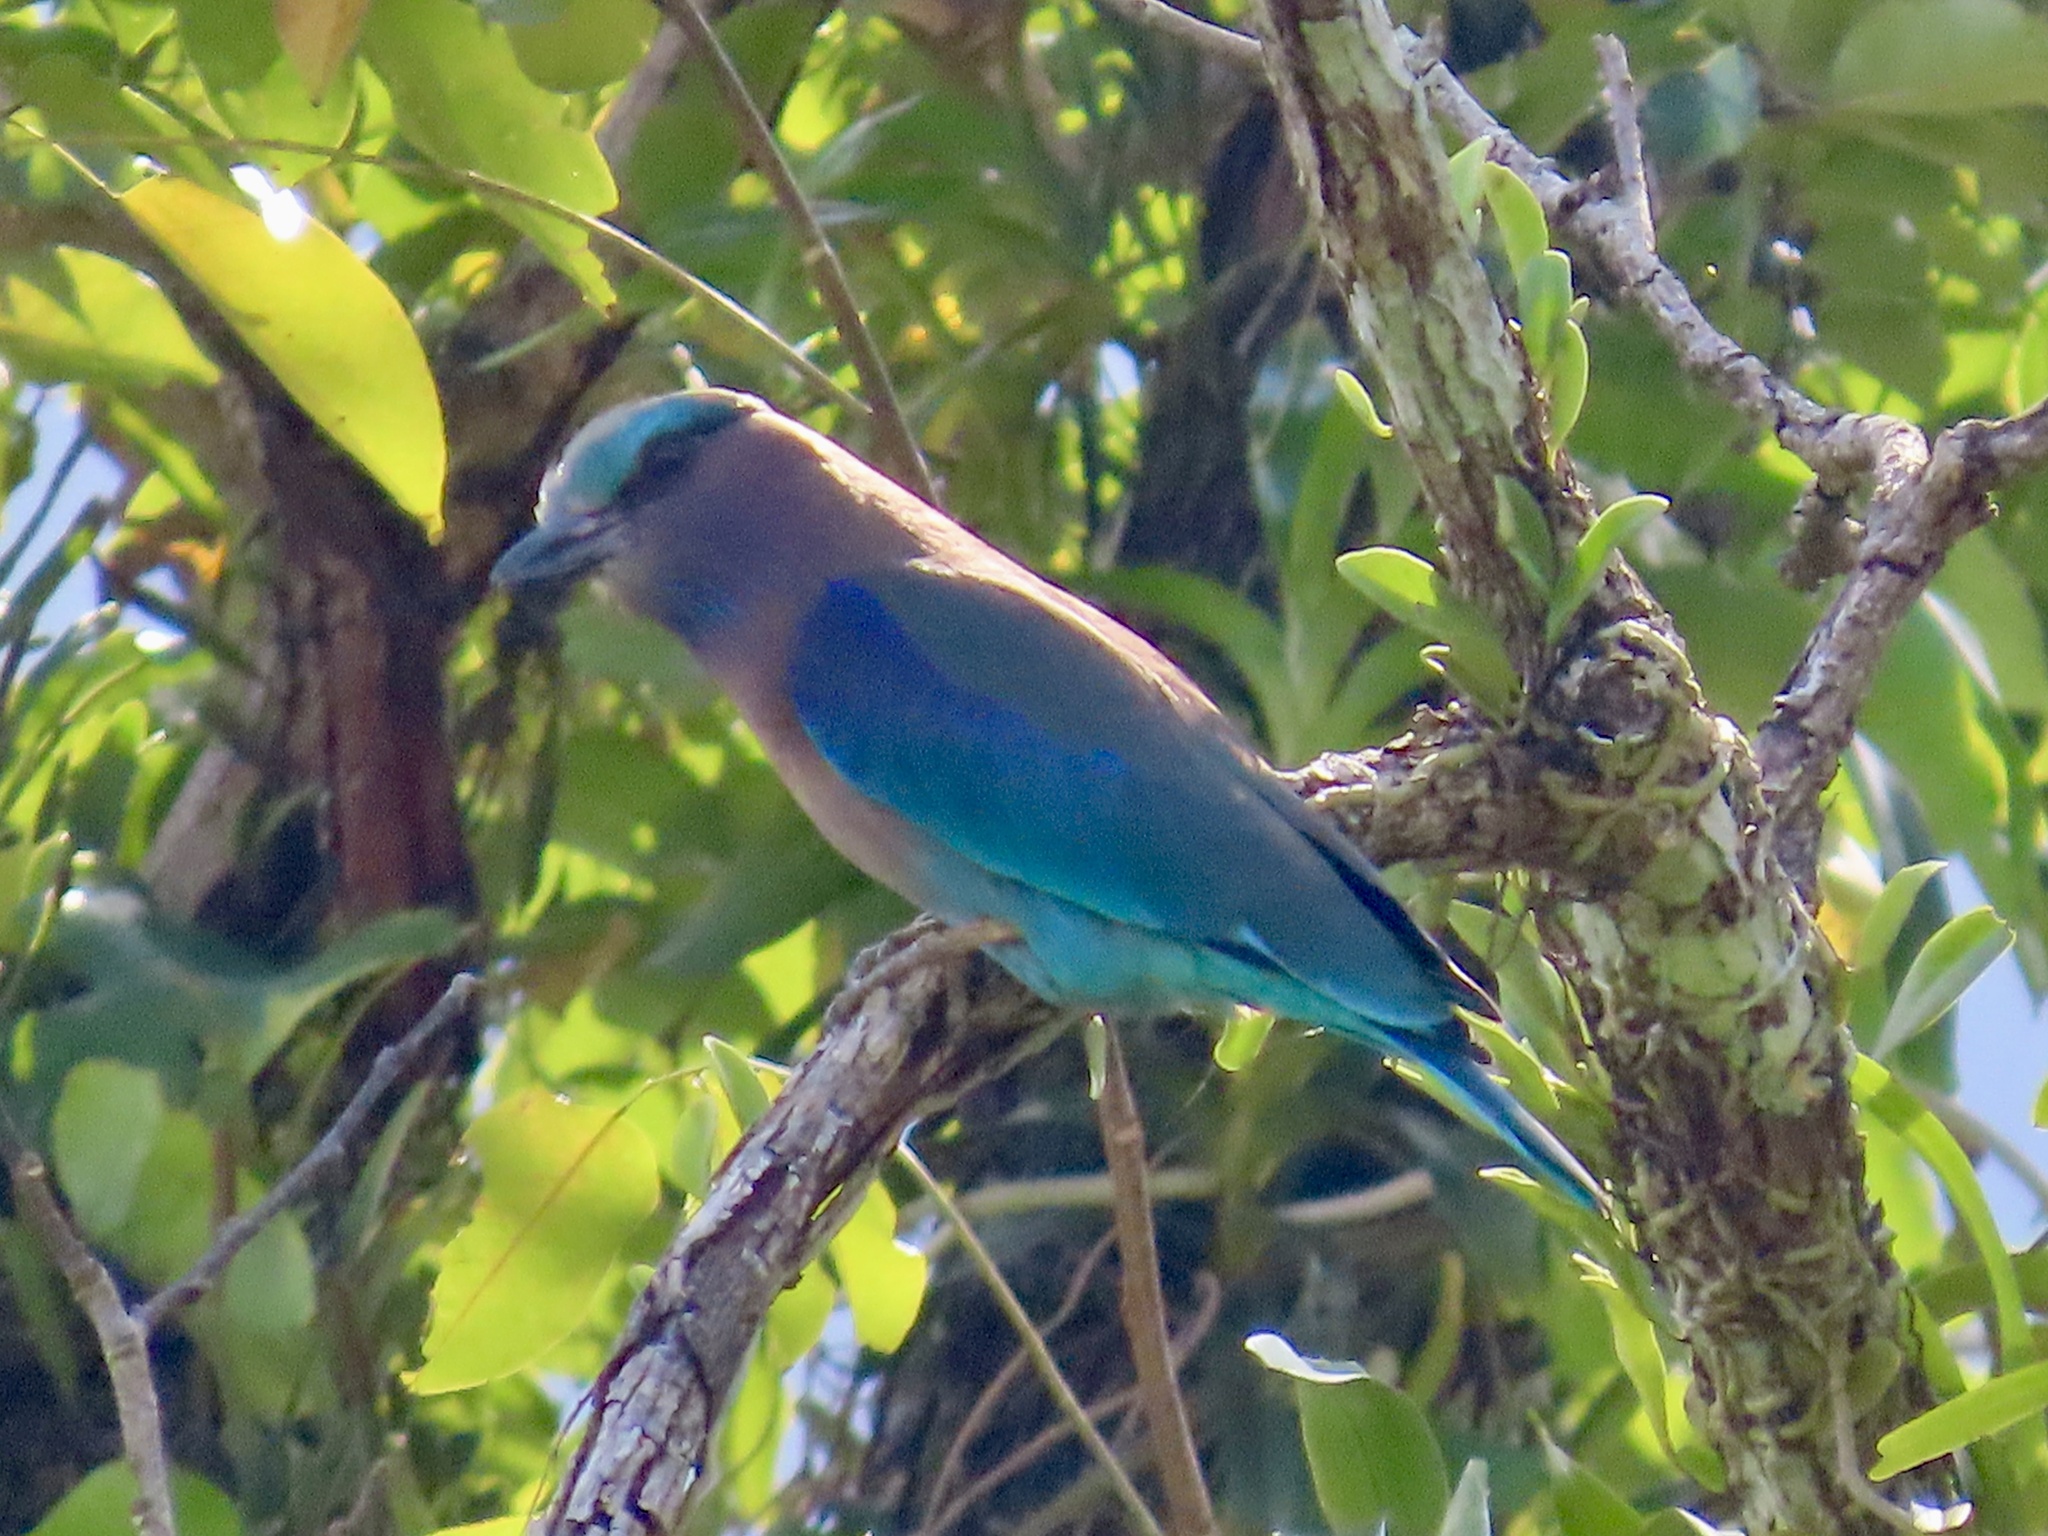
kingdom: Animalia
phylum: Chordata
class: Aves
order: Coraciiformes
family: Coraciidae
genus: Coracias
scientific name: Coracias affinis
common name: Indochinese roller
